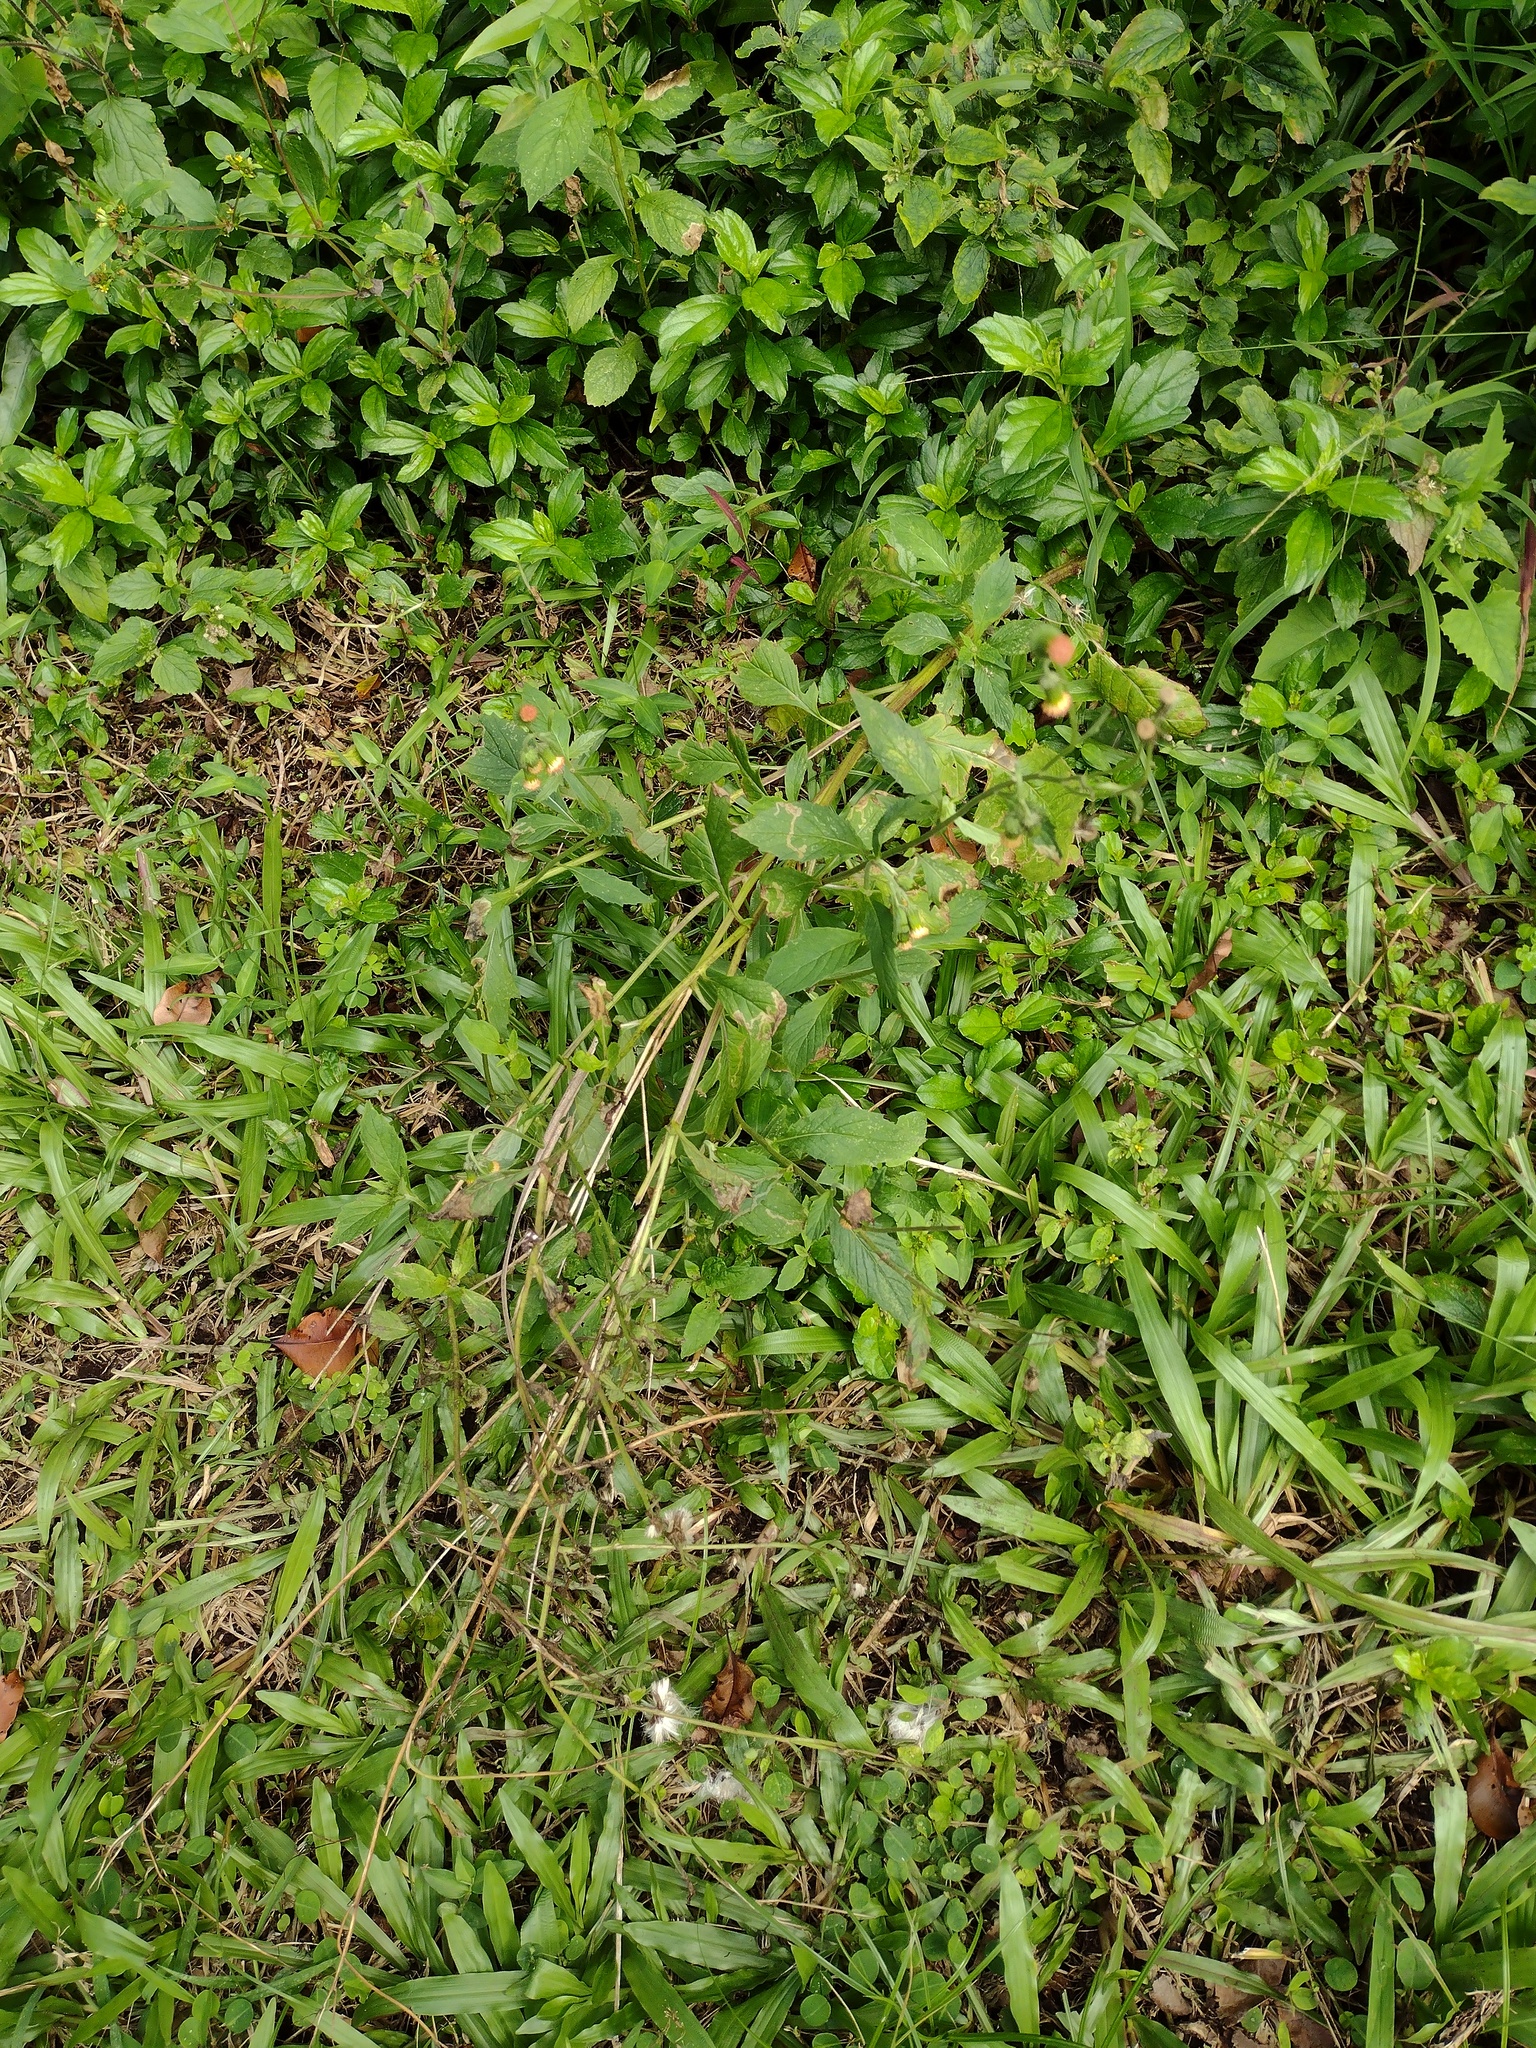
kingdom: Plantae
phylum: Tracheophyta
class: Magnoliopsida
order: Asterales
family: Asteraceae
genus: Crassocephalum
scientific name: Crassocephalum crepidioides
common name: Redflower ragleaf
